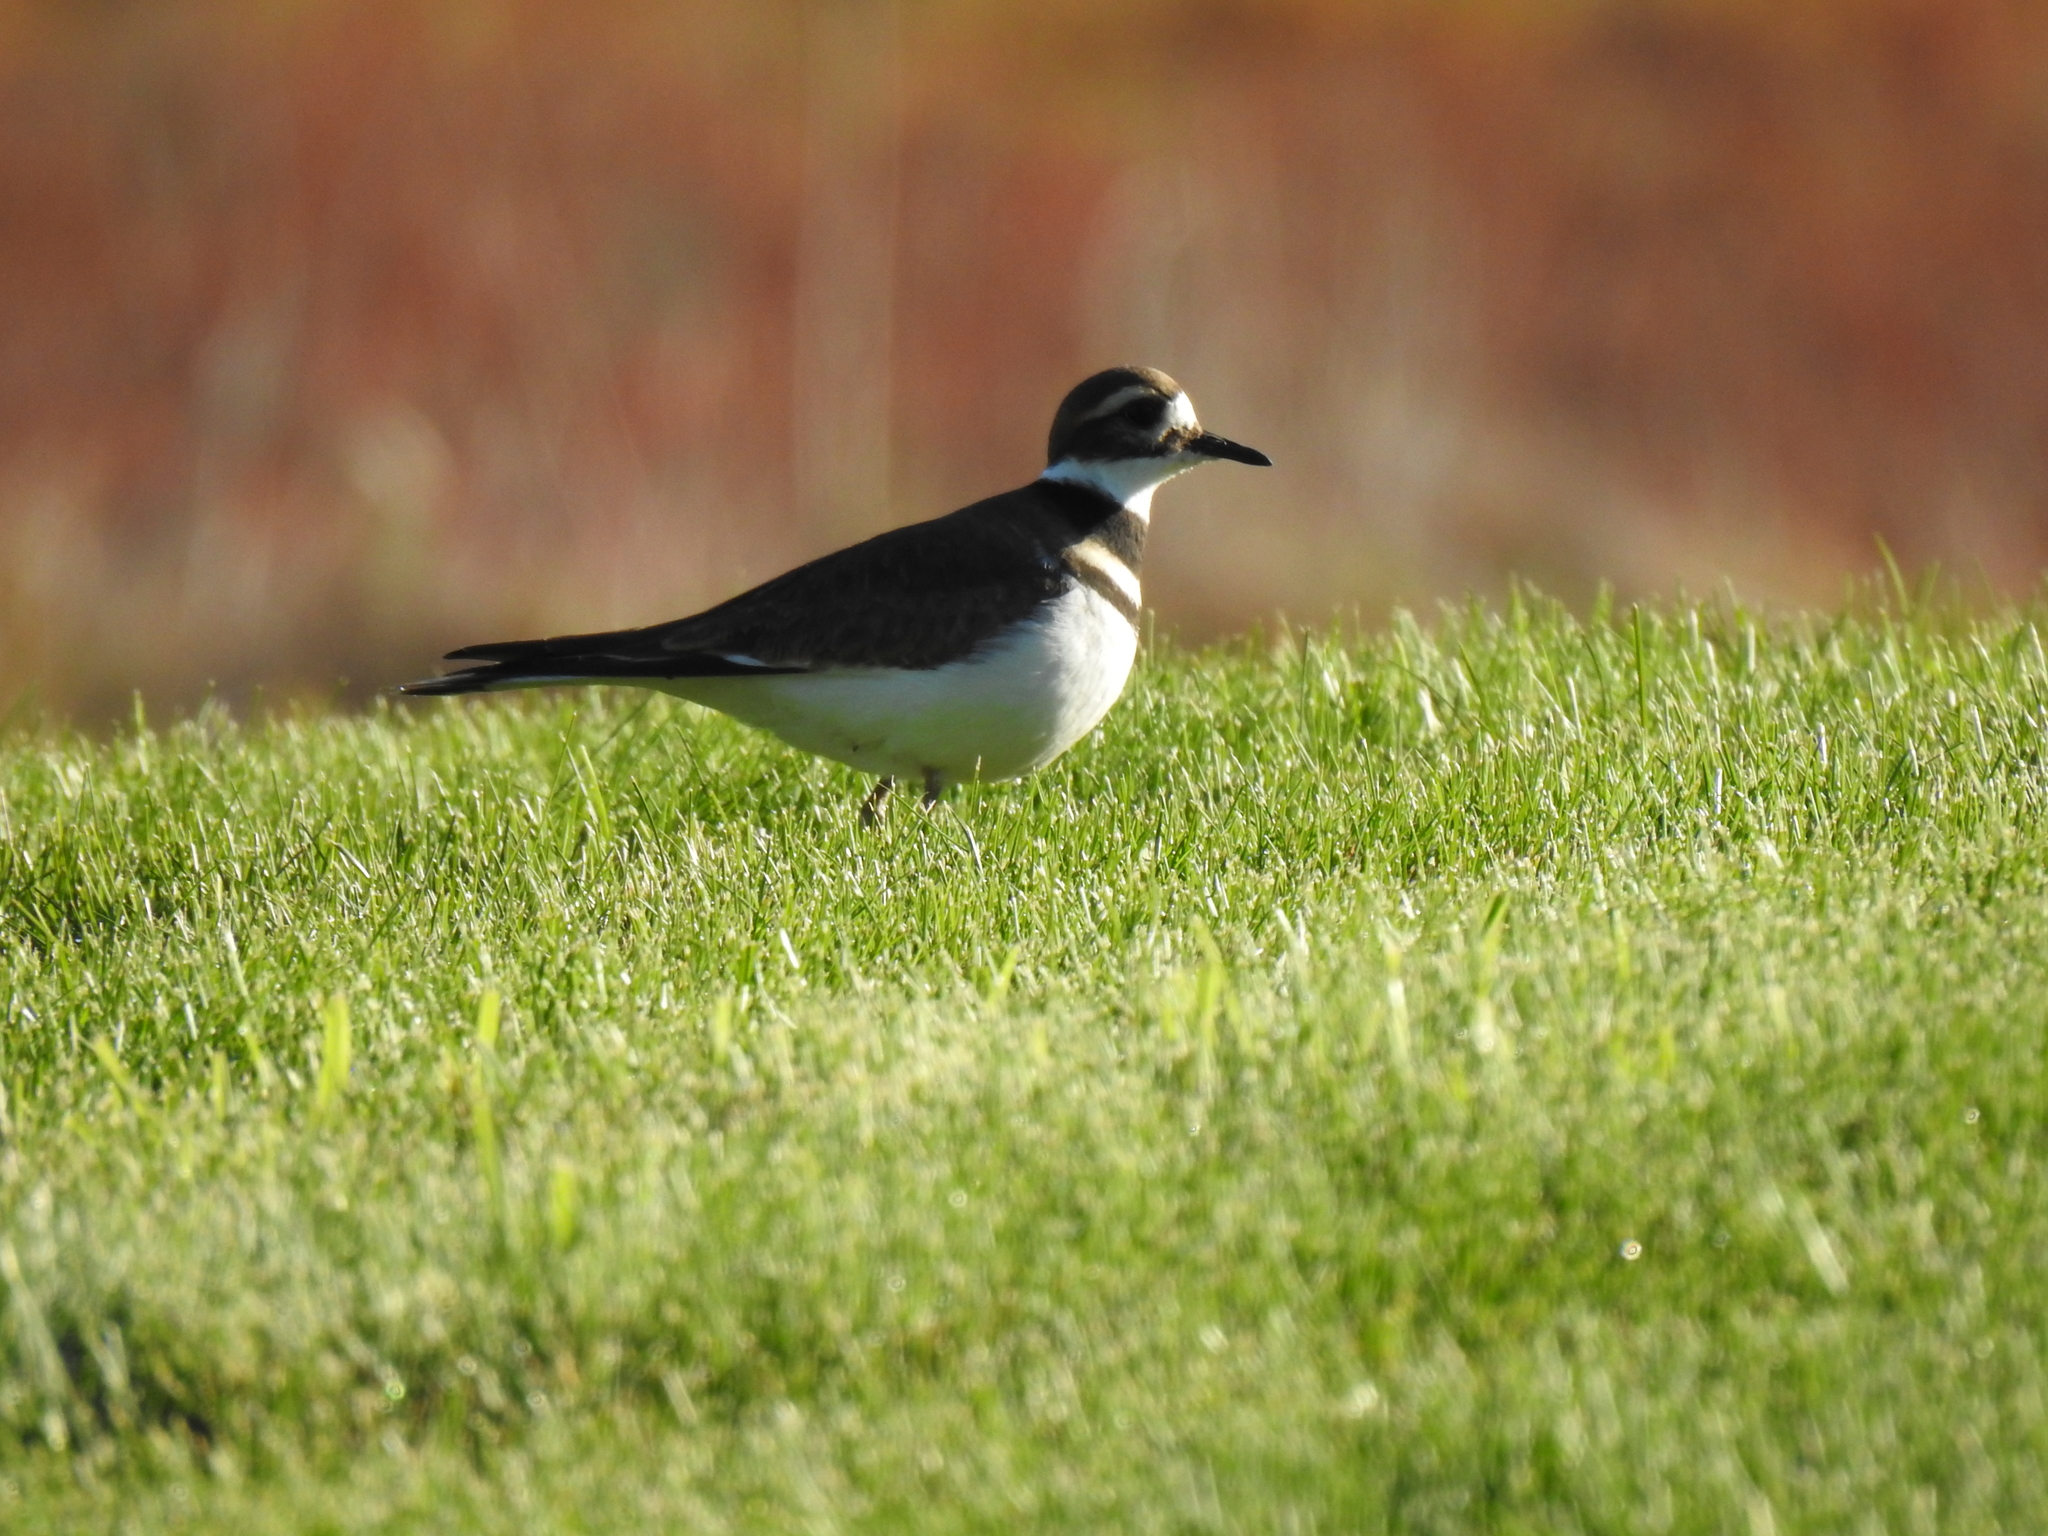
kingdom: Animalia
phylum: Chordata
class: Aves
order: Charadriiformes
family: Charadriidae
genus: Charadrius
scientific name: Charadrius vociferus
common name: Killdeer
